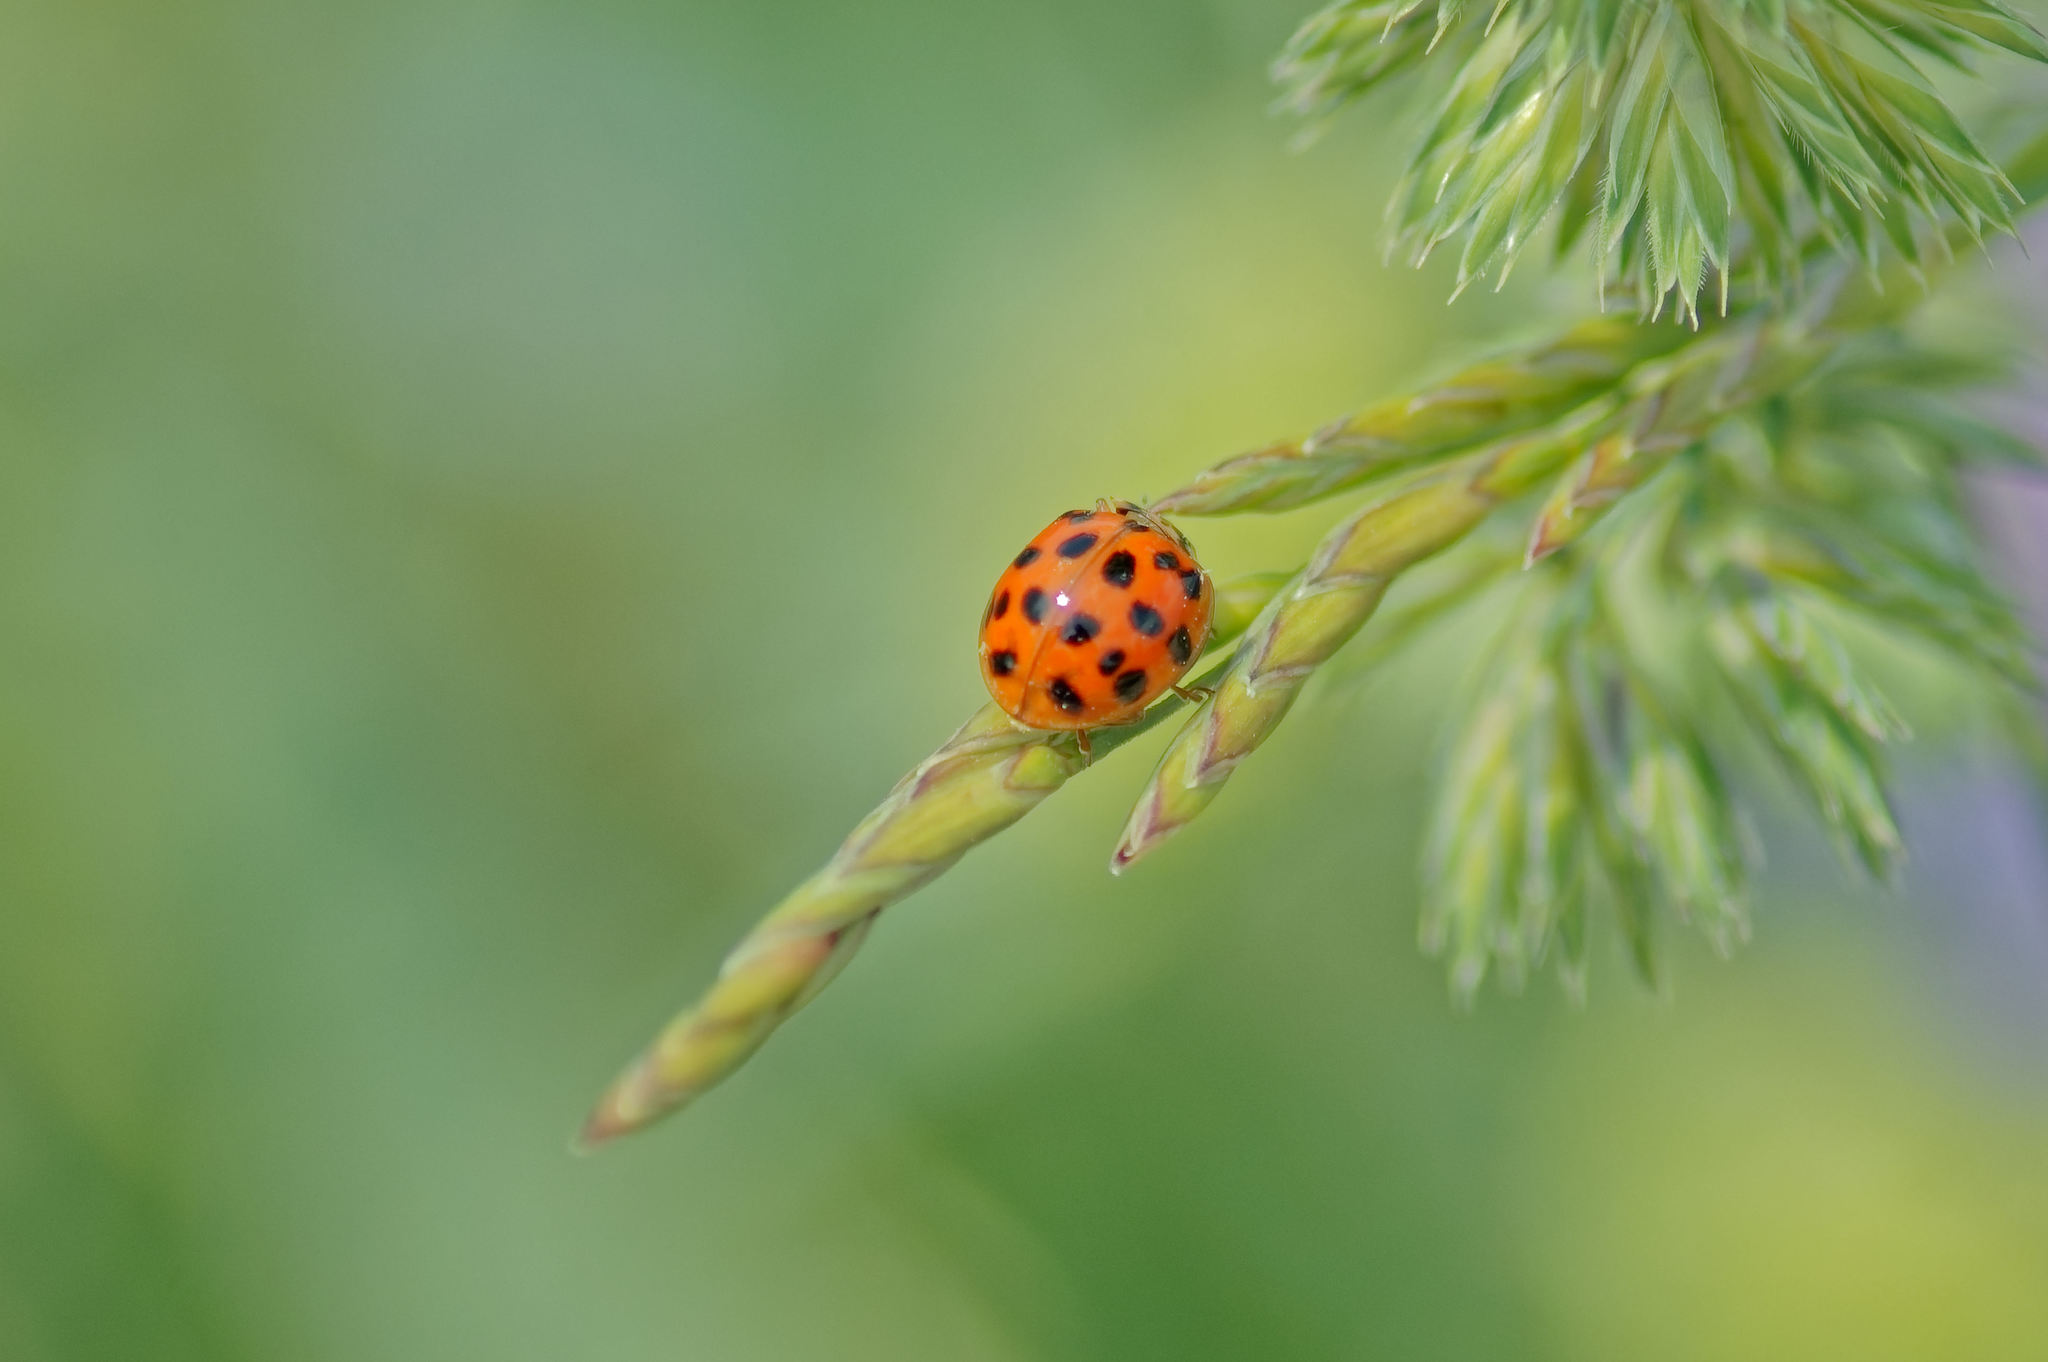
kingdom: Animalia
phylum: Arthropoda
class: Insecta
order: Coleoptera
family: Coccinellidae
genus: Harmonia
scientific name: Harmonia axyridis
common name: Harlequin ladybird
